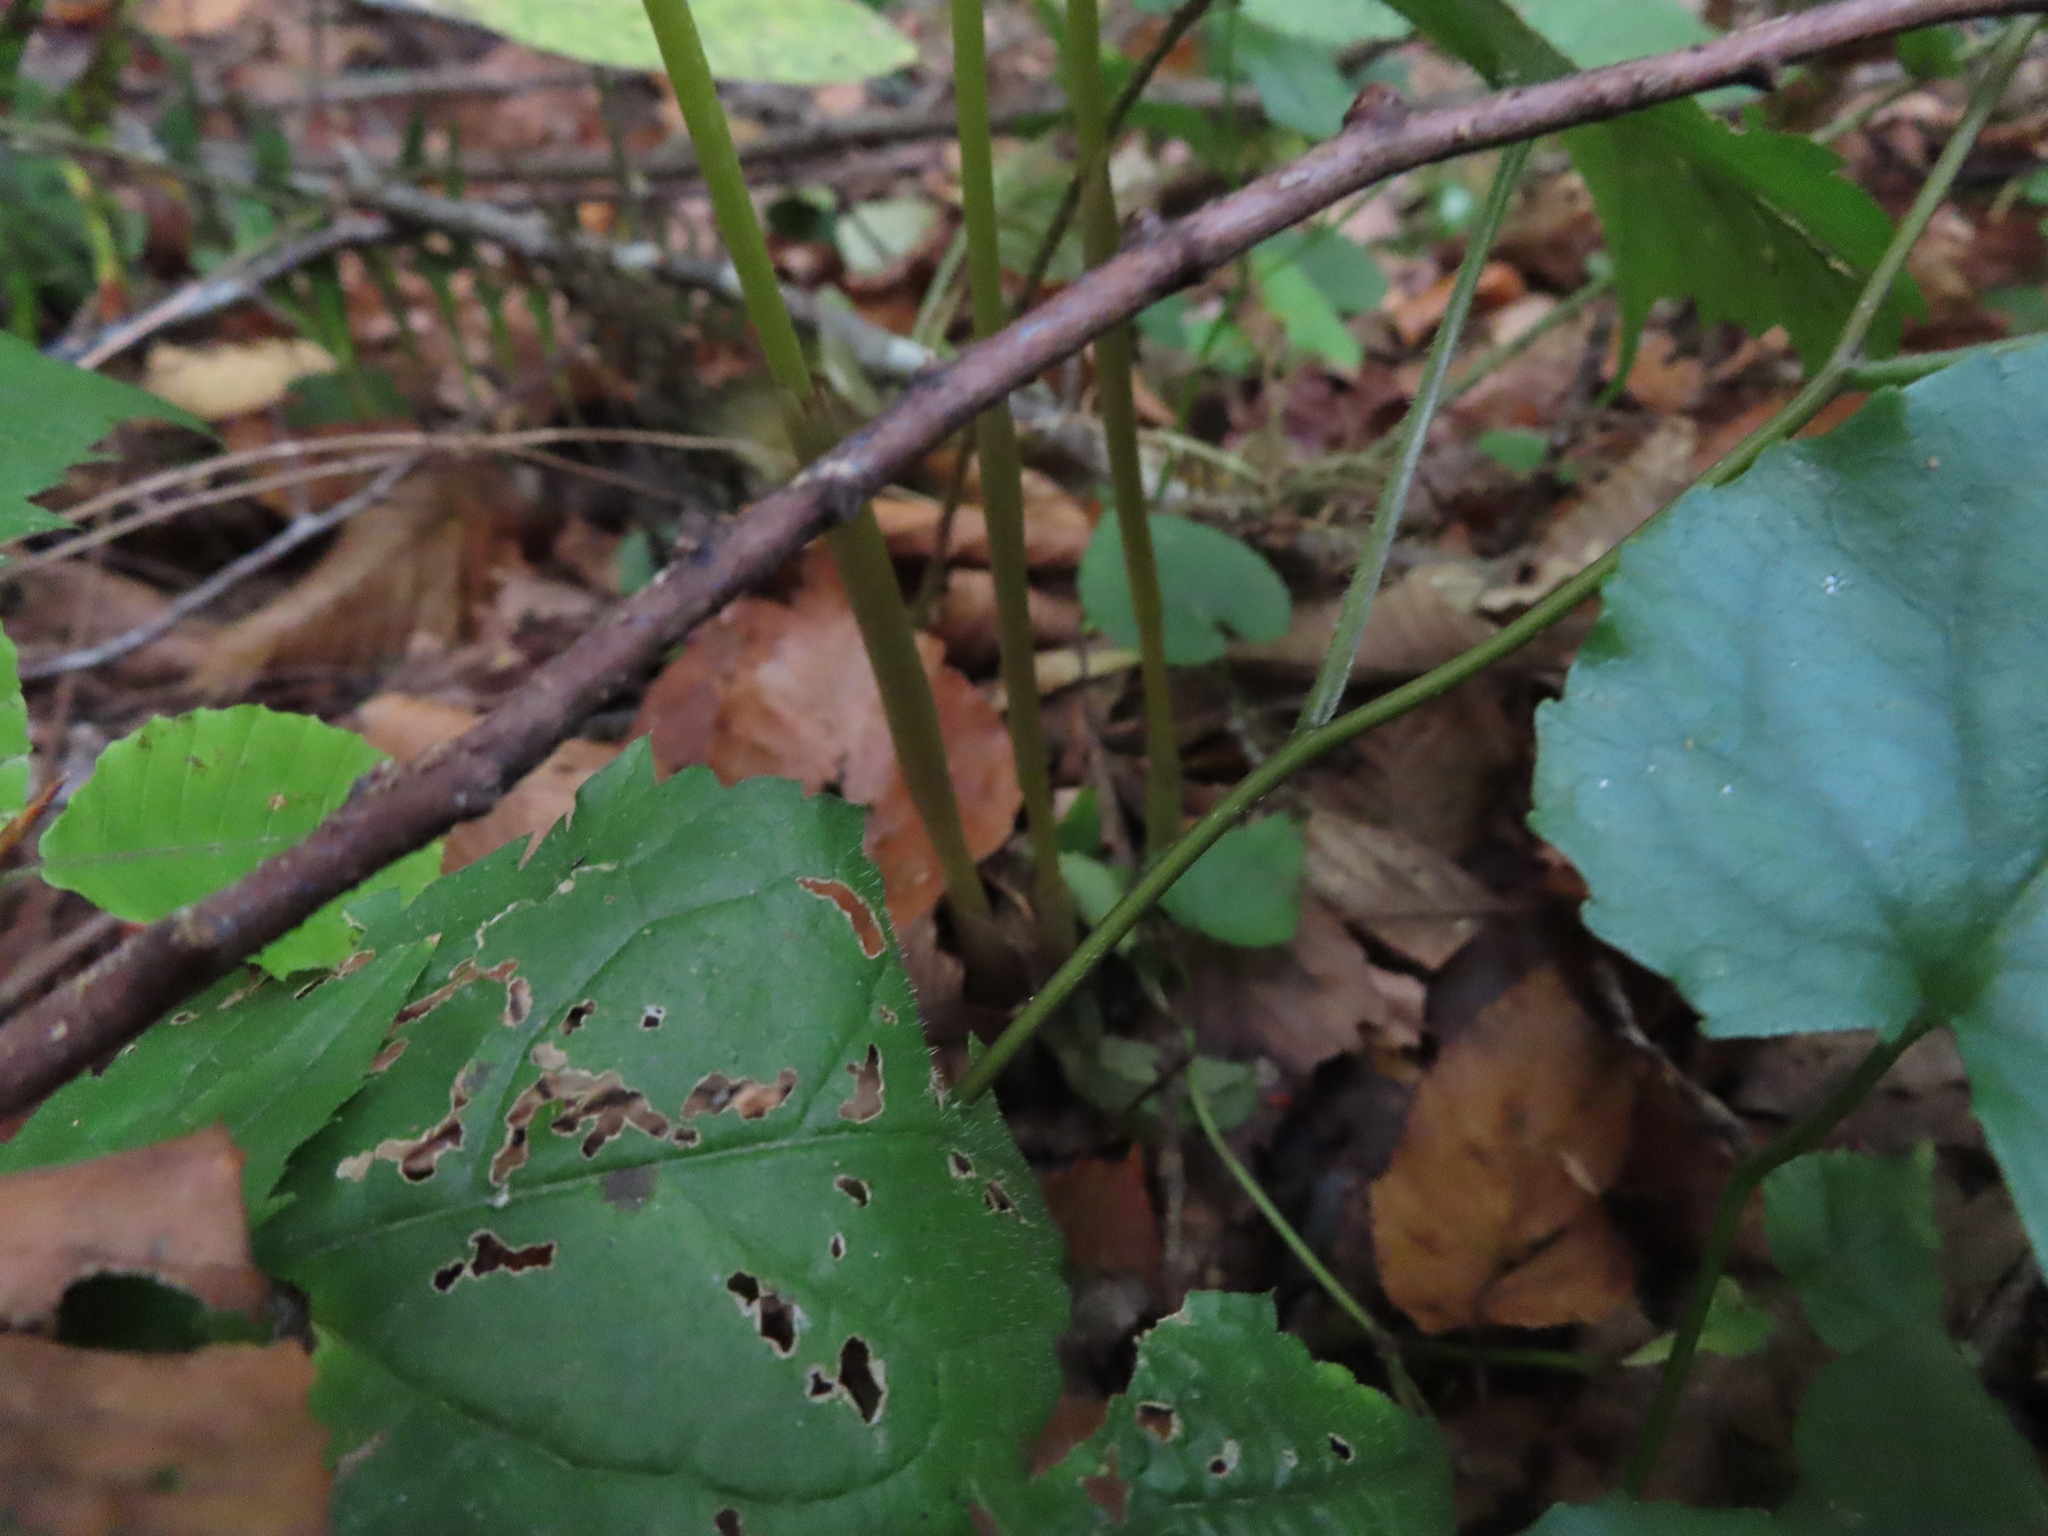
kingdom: Plantae
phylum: Tracheophyta
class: Liliopsida
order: Asparagales
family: Orchidaceae
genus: Corallorhiza
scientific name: Corallorhiza odontorhiza
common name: Autumn coralroot
